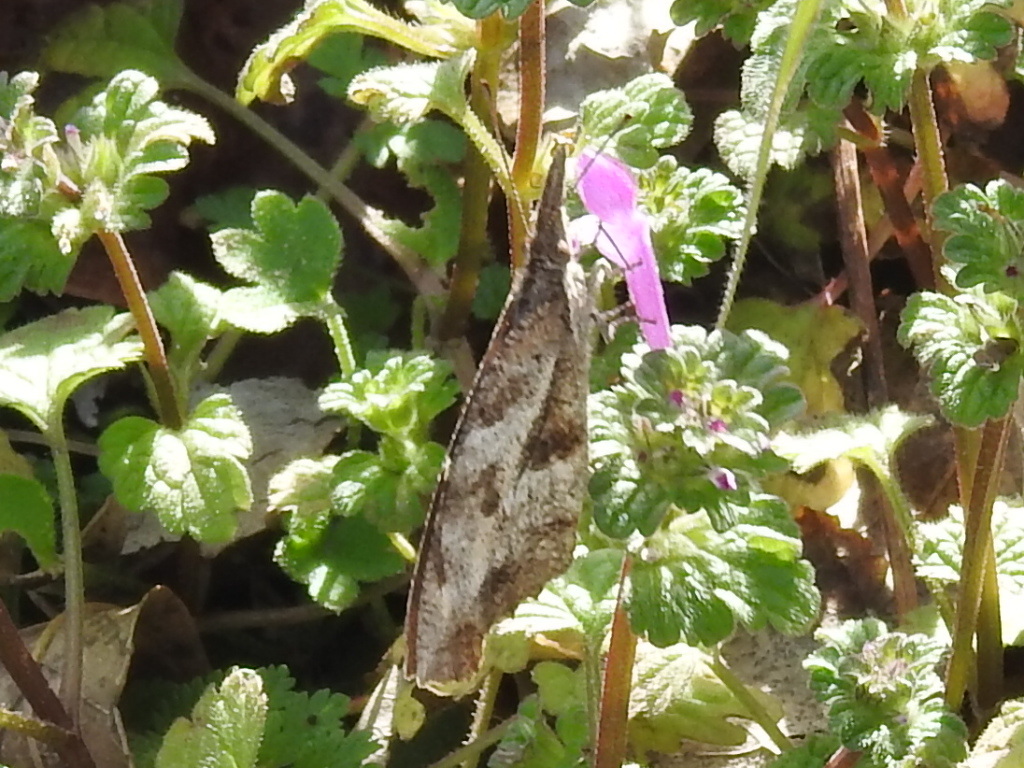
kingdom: Animalia
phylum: Arthropoda
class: Insecta
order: Lepidoptera
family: Nymphalidae
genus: Libytheana
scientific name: Libytheana carinenta
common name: American snout
